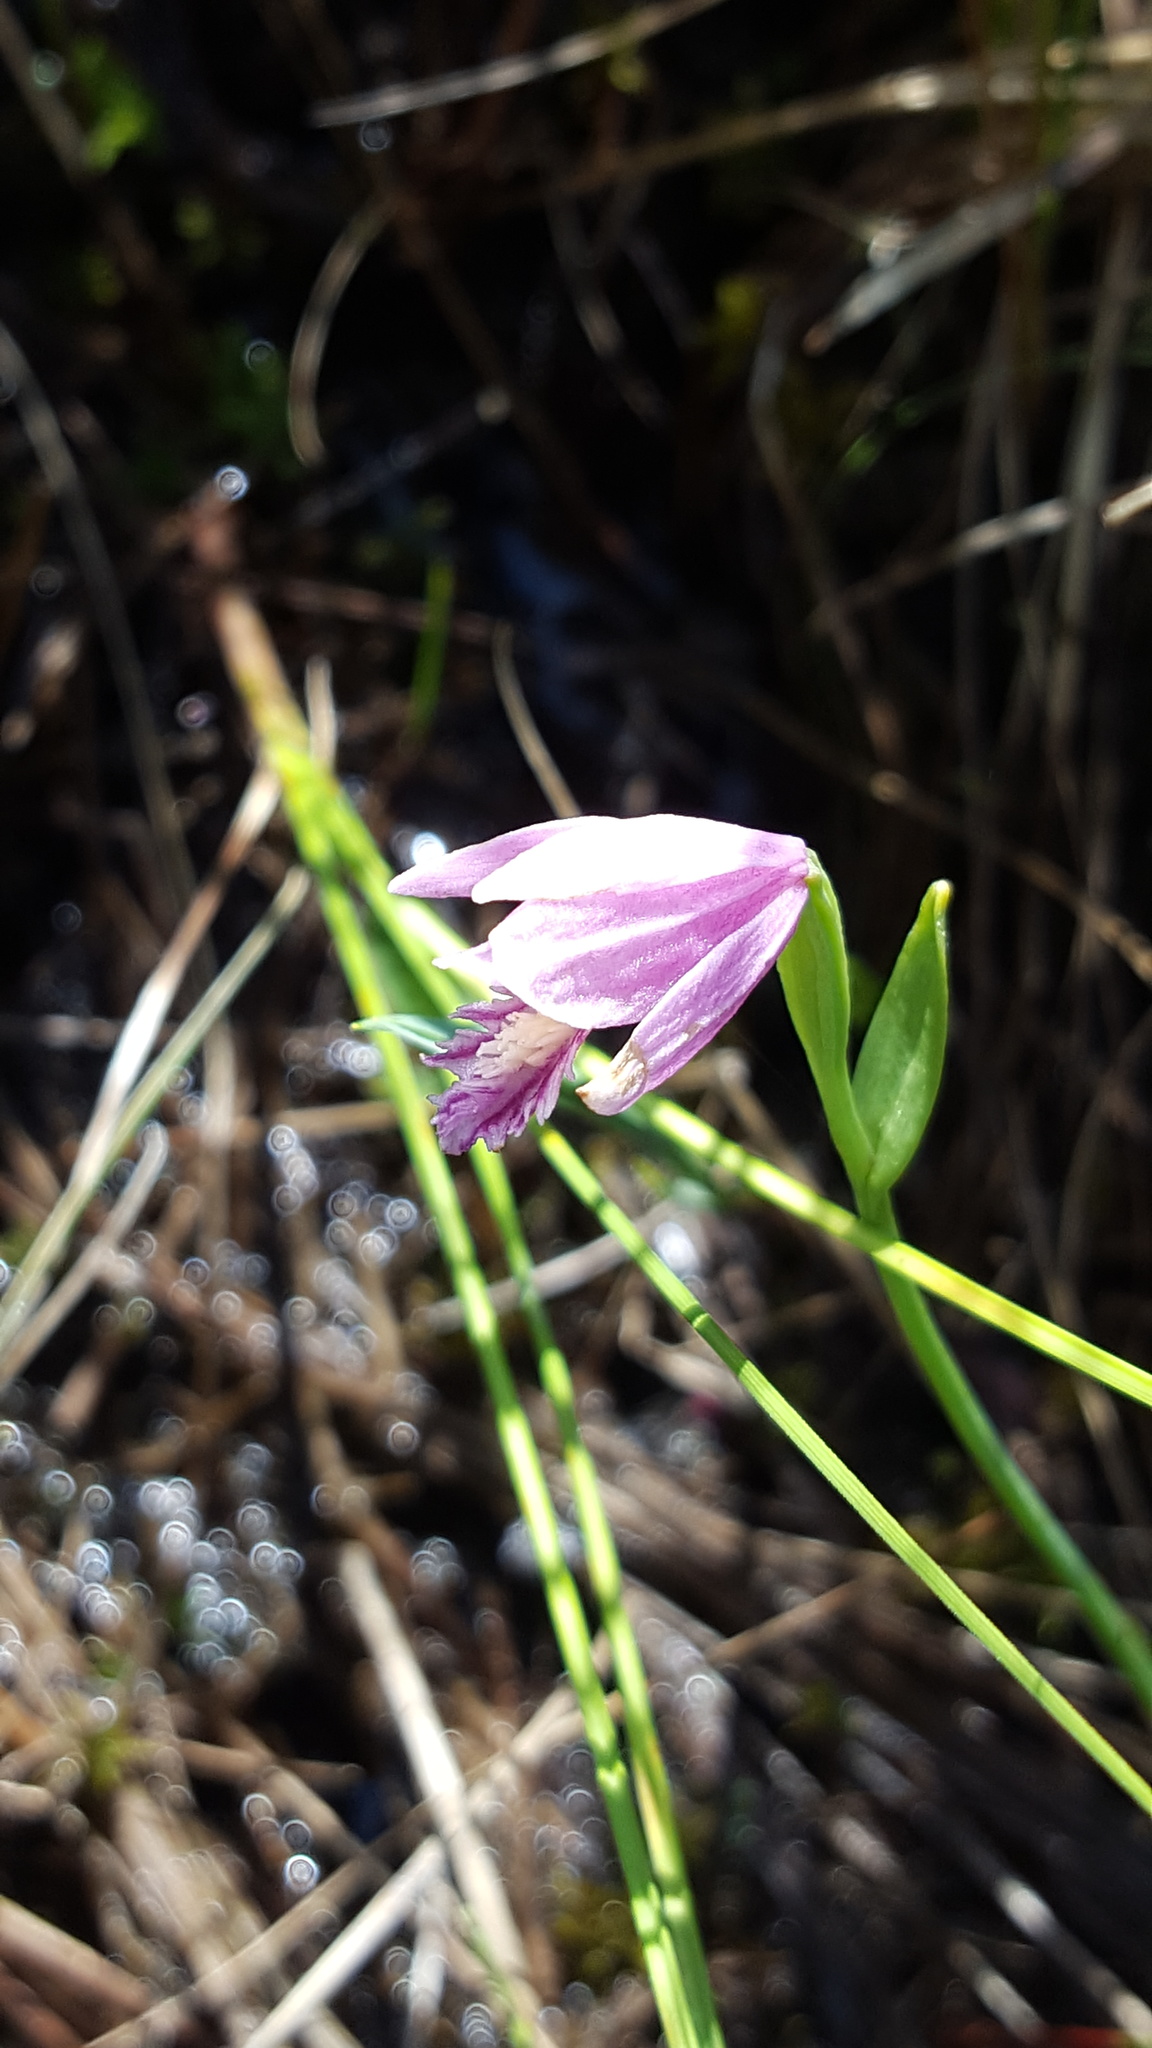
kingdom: Plantae
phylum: Tracheophyta
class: Liliopsida
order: Asparagales
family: Orchidaceae
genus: Pogonia
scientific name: Pogonia ophioglossoides
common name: Rose pogonia
